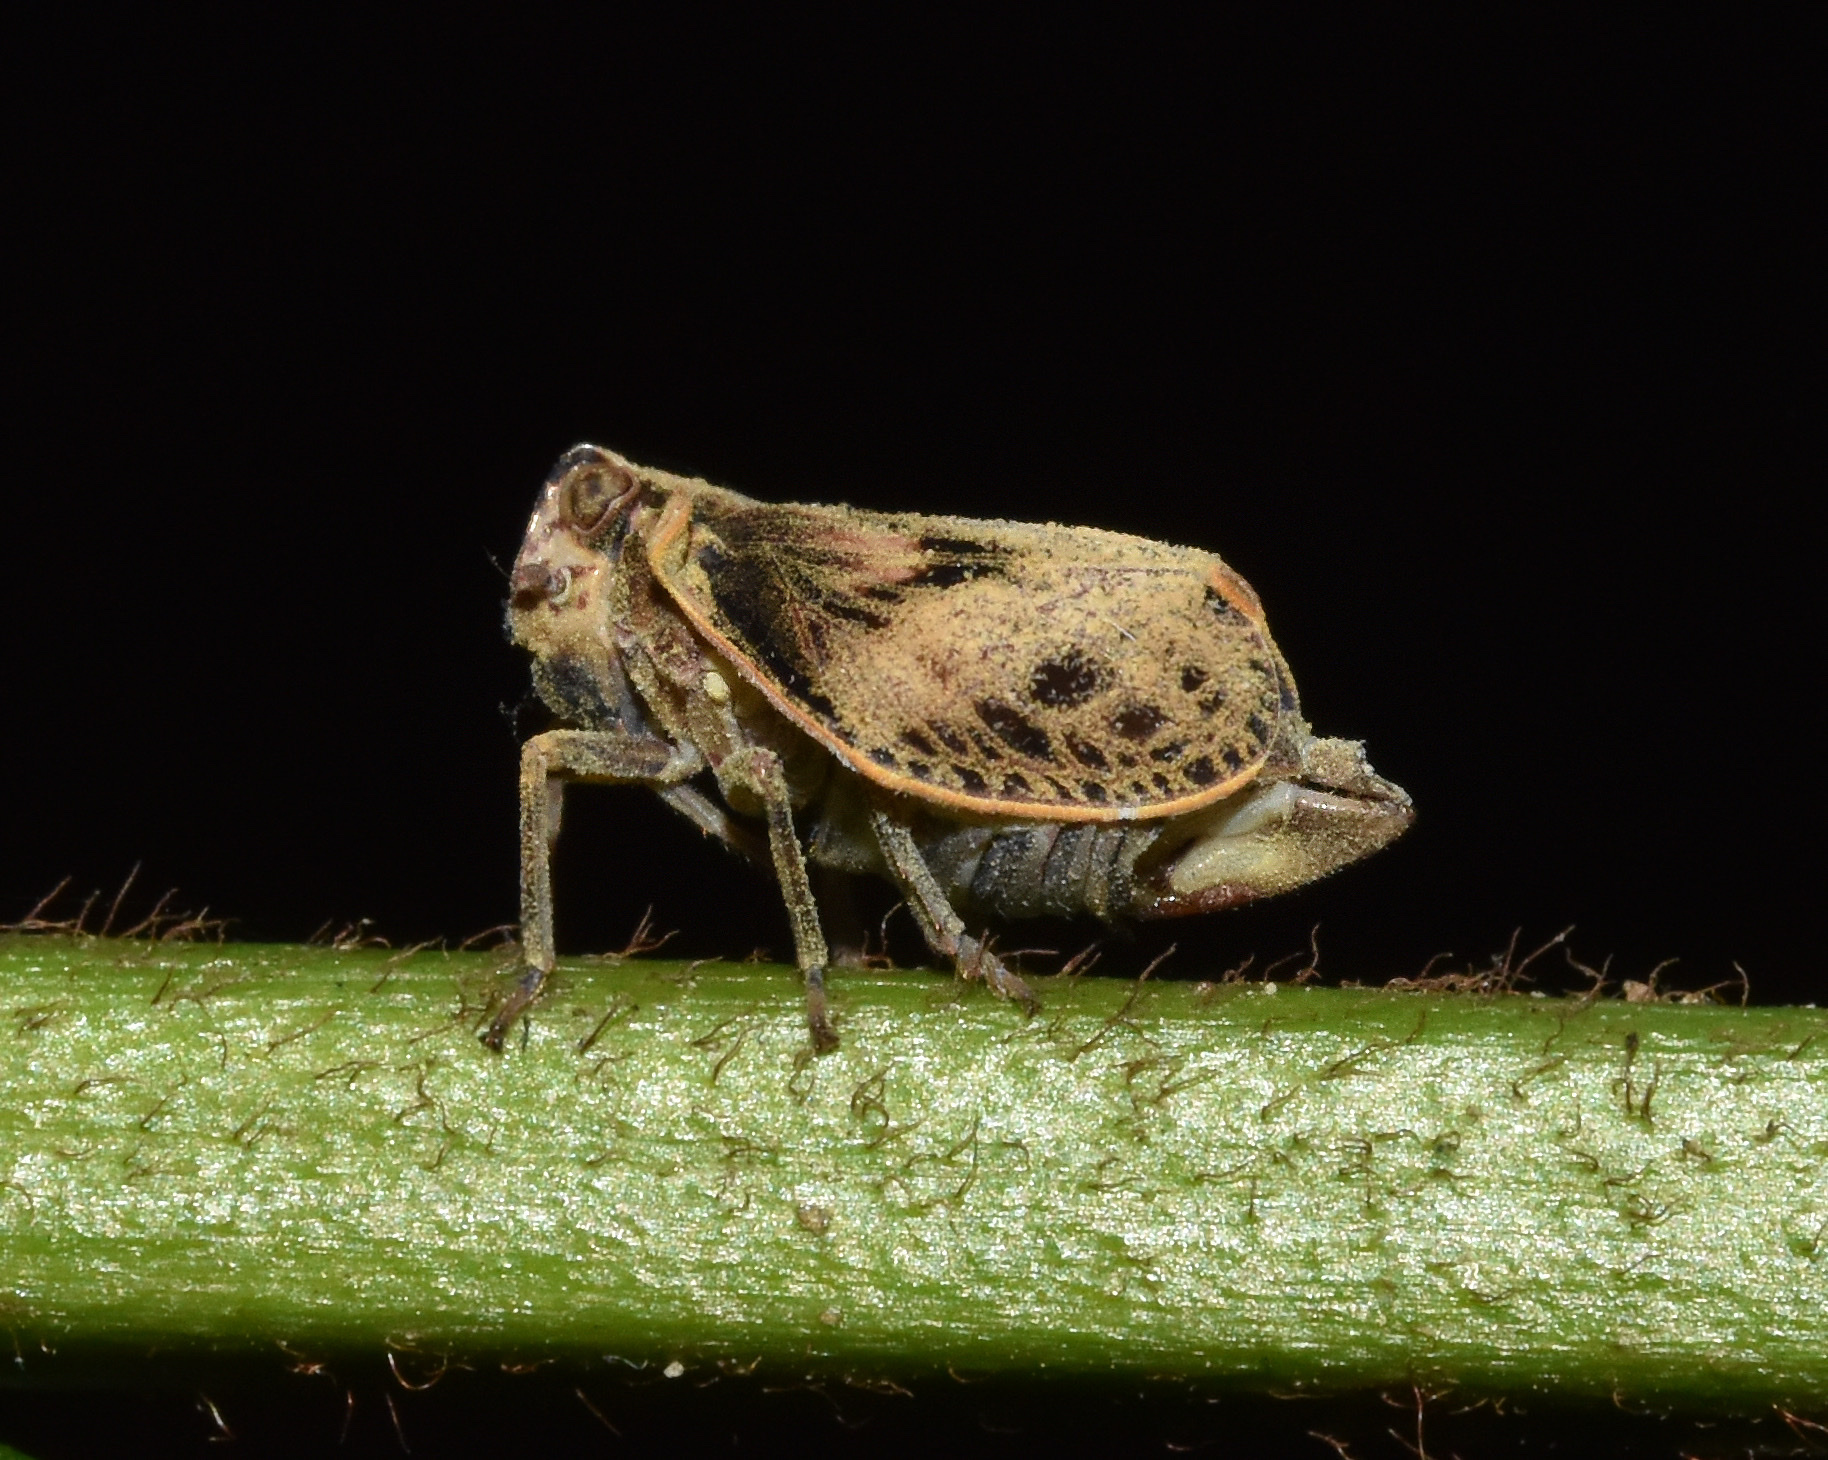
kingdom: Animalia
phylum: Arthropoda
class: Insecta
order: Hemiptera
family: Tropiduchidae
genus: Trienopa
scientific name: Trienopa longifrons
